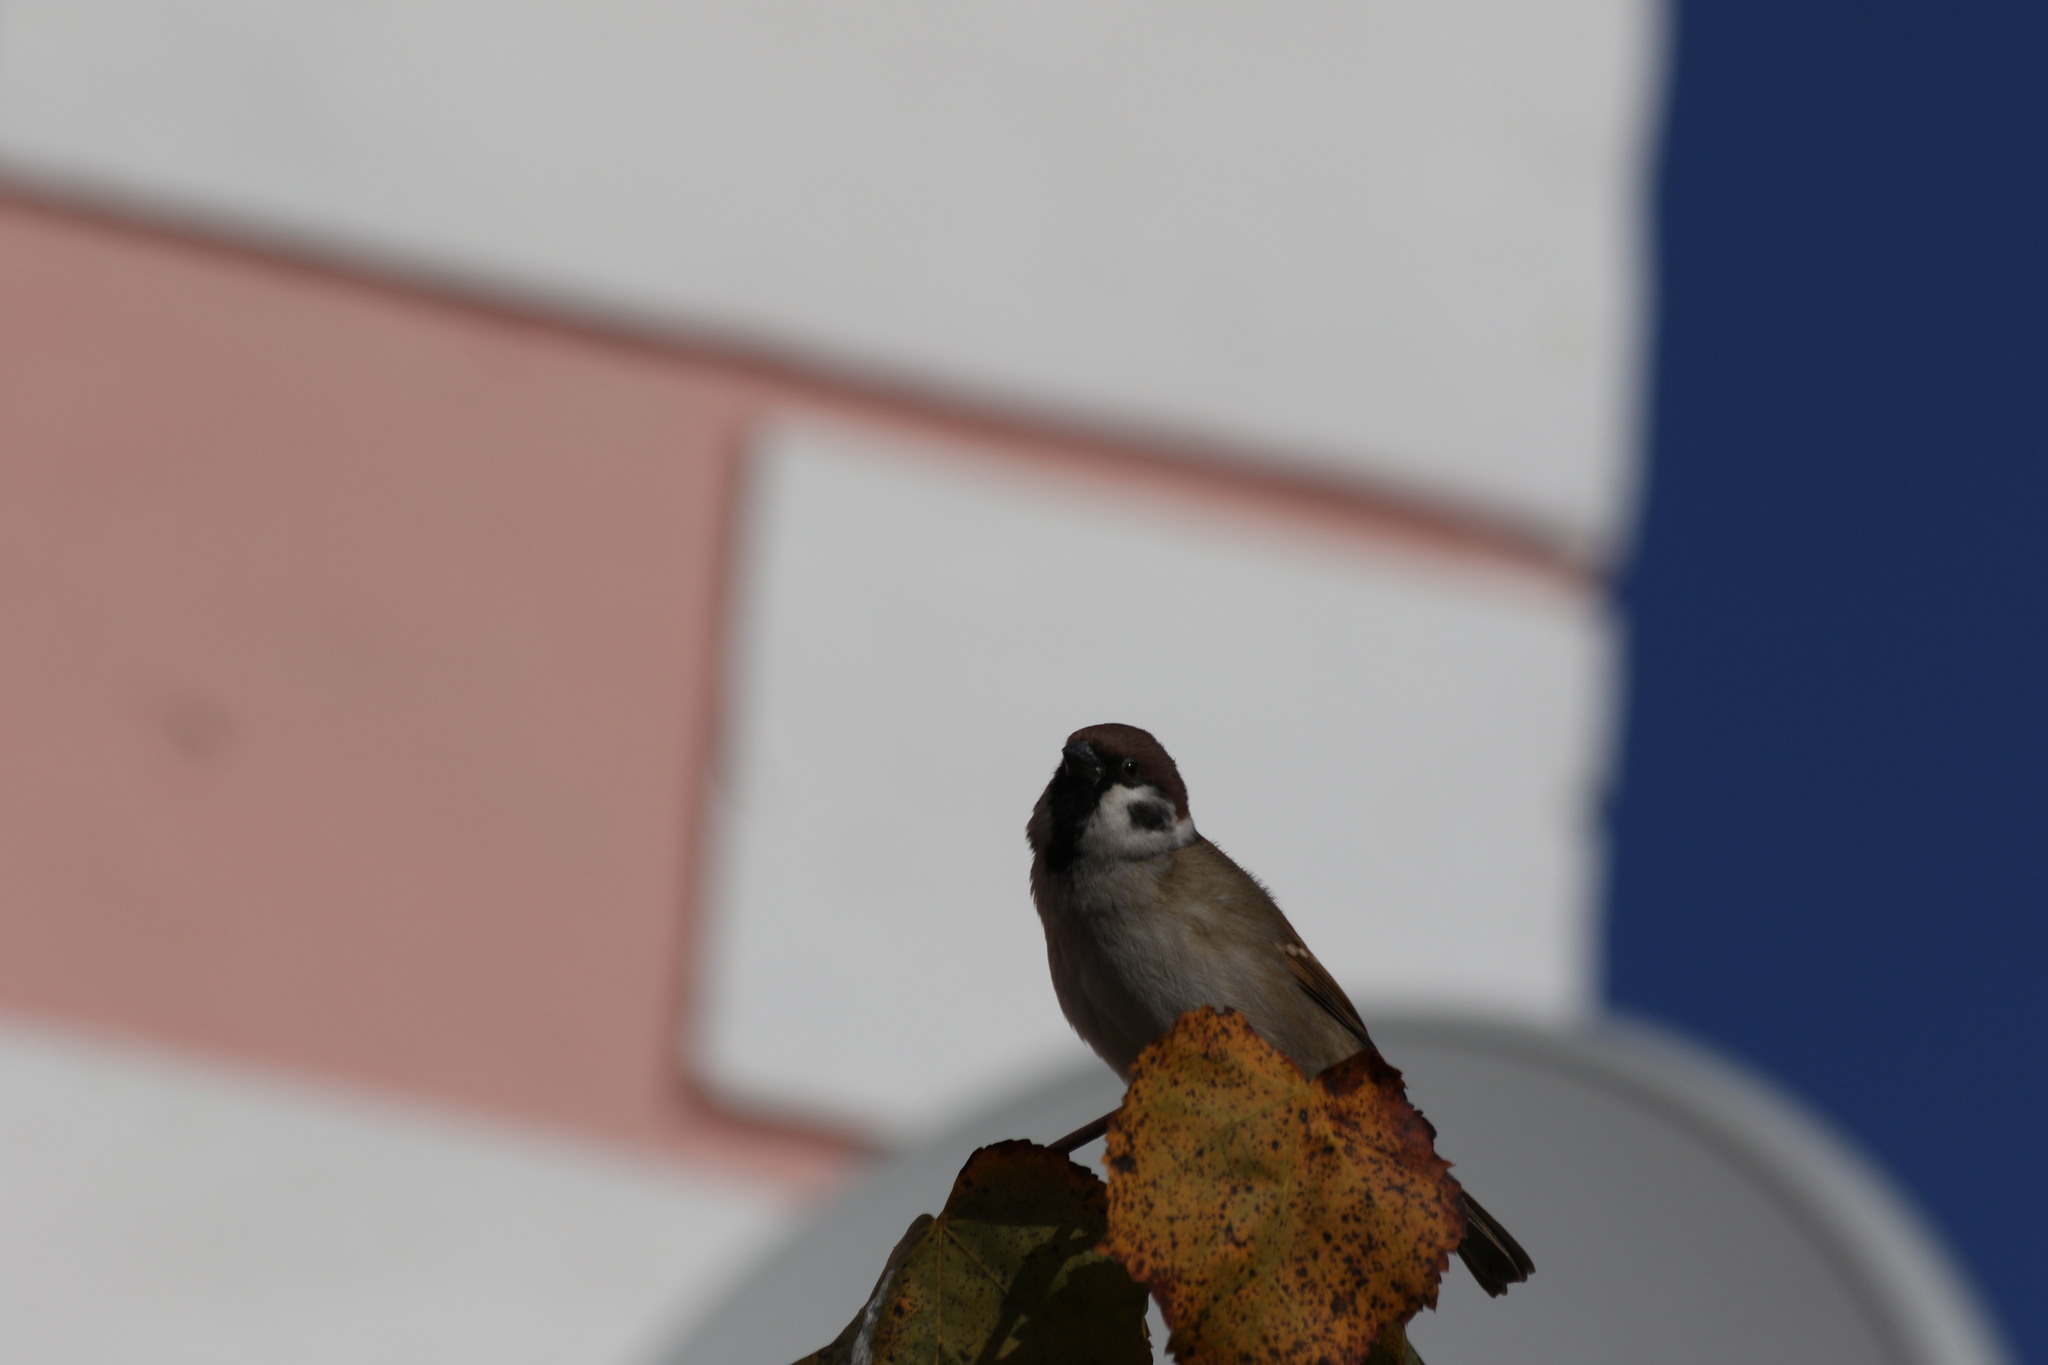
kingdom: Animalia
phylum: Chordata
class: Aves
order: Passeriformes
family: Passeridae
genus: Passer
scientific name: Passer montanus
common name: Eurasian tree sparrow
